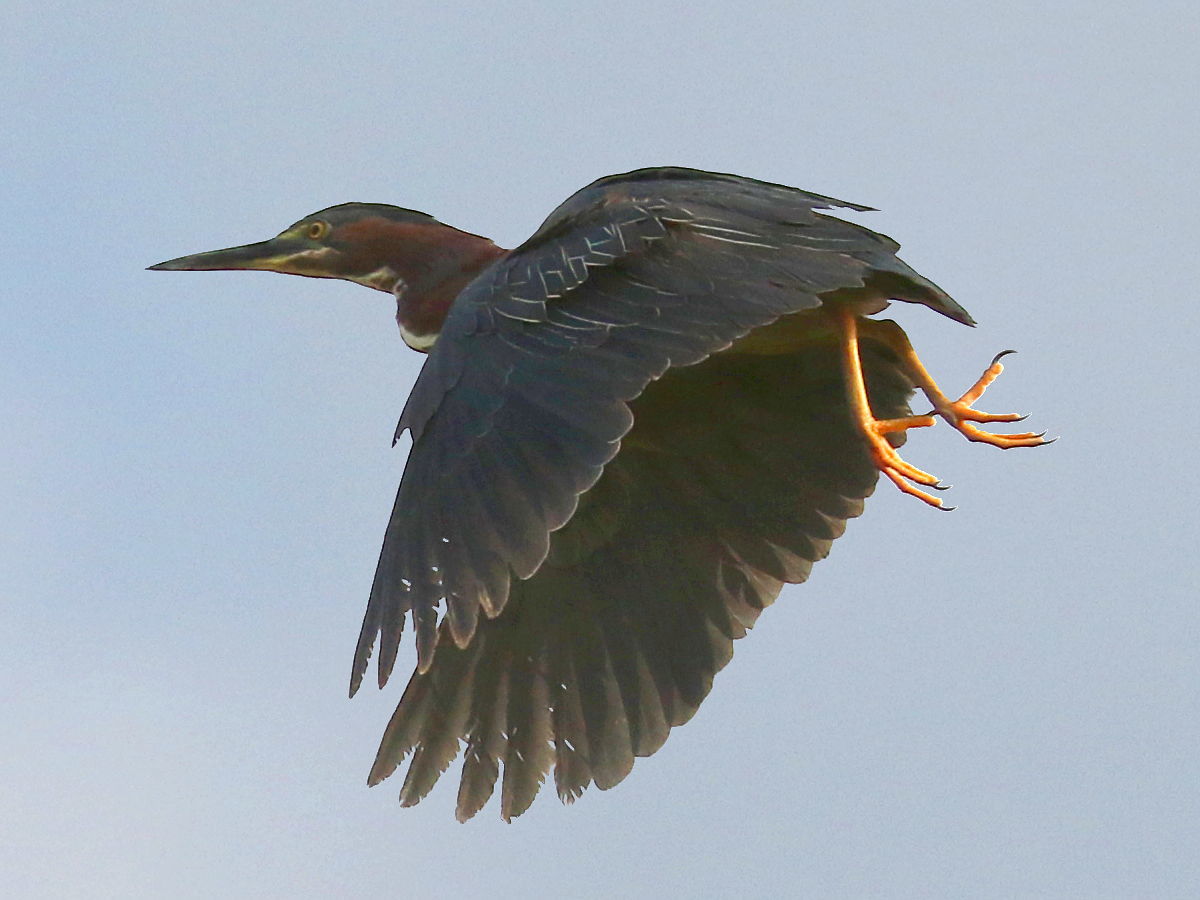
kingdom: Animalia
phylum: Chordata
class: Aves
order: Pelecaniformes
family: Ardeidae
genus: Butorides
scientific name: Butorides virescens
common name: Green heron
